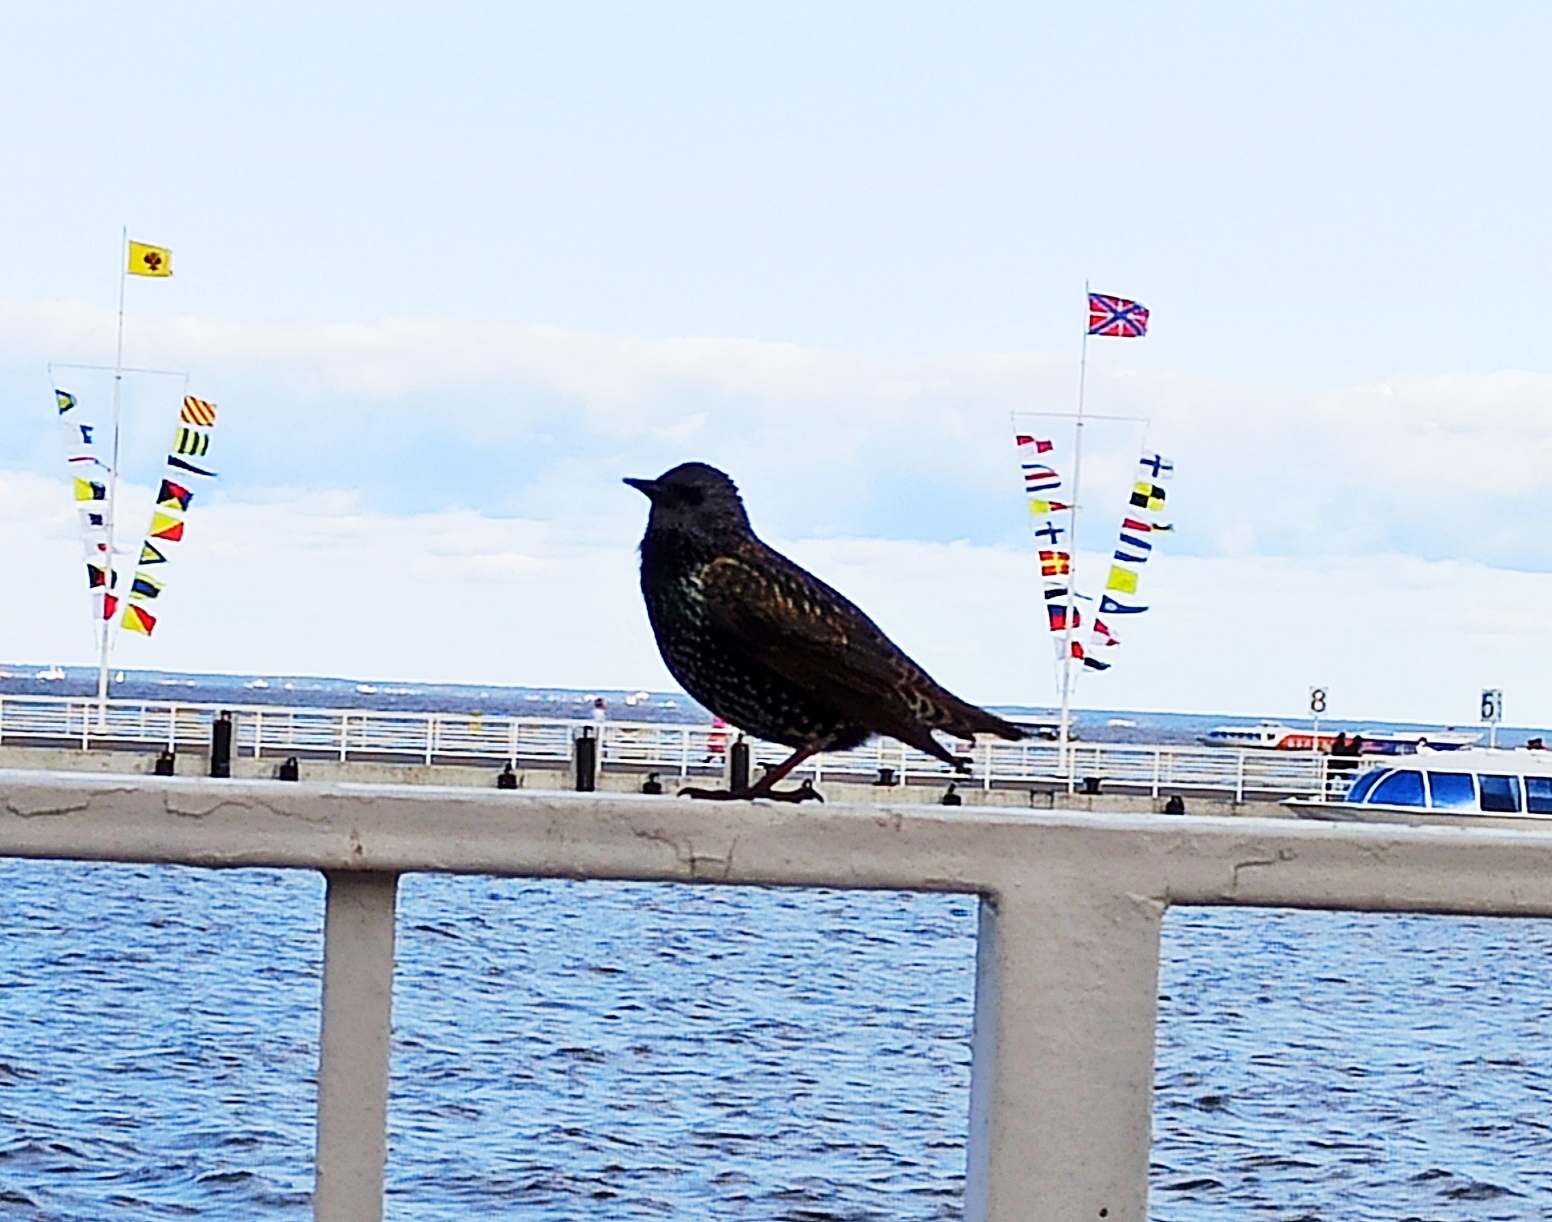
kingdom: Animalia
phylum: Chordata
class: Aves
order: Passeriformes
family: Sturnidae
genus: Sturnus
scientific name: Sturnus vulgaris
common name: Common starling
